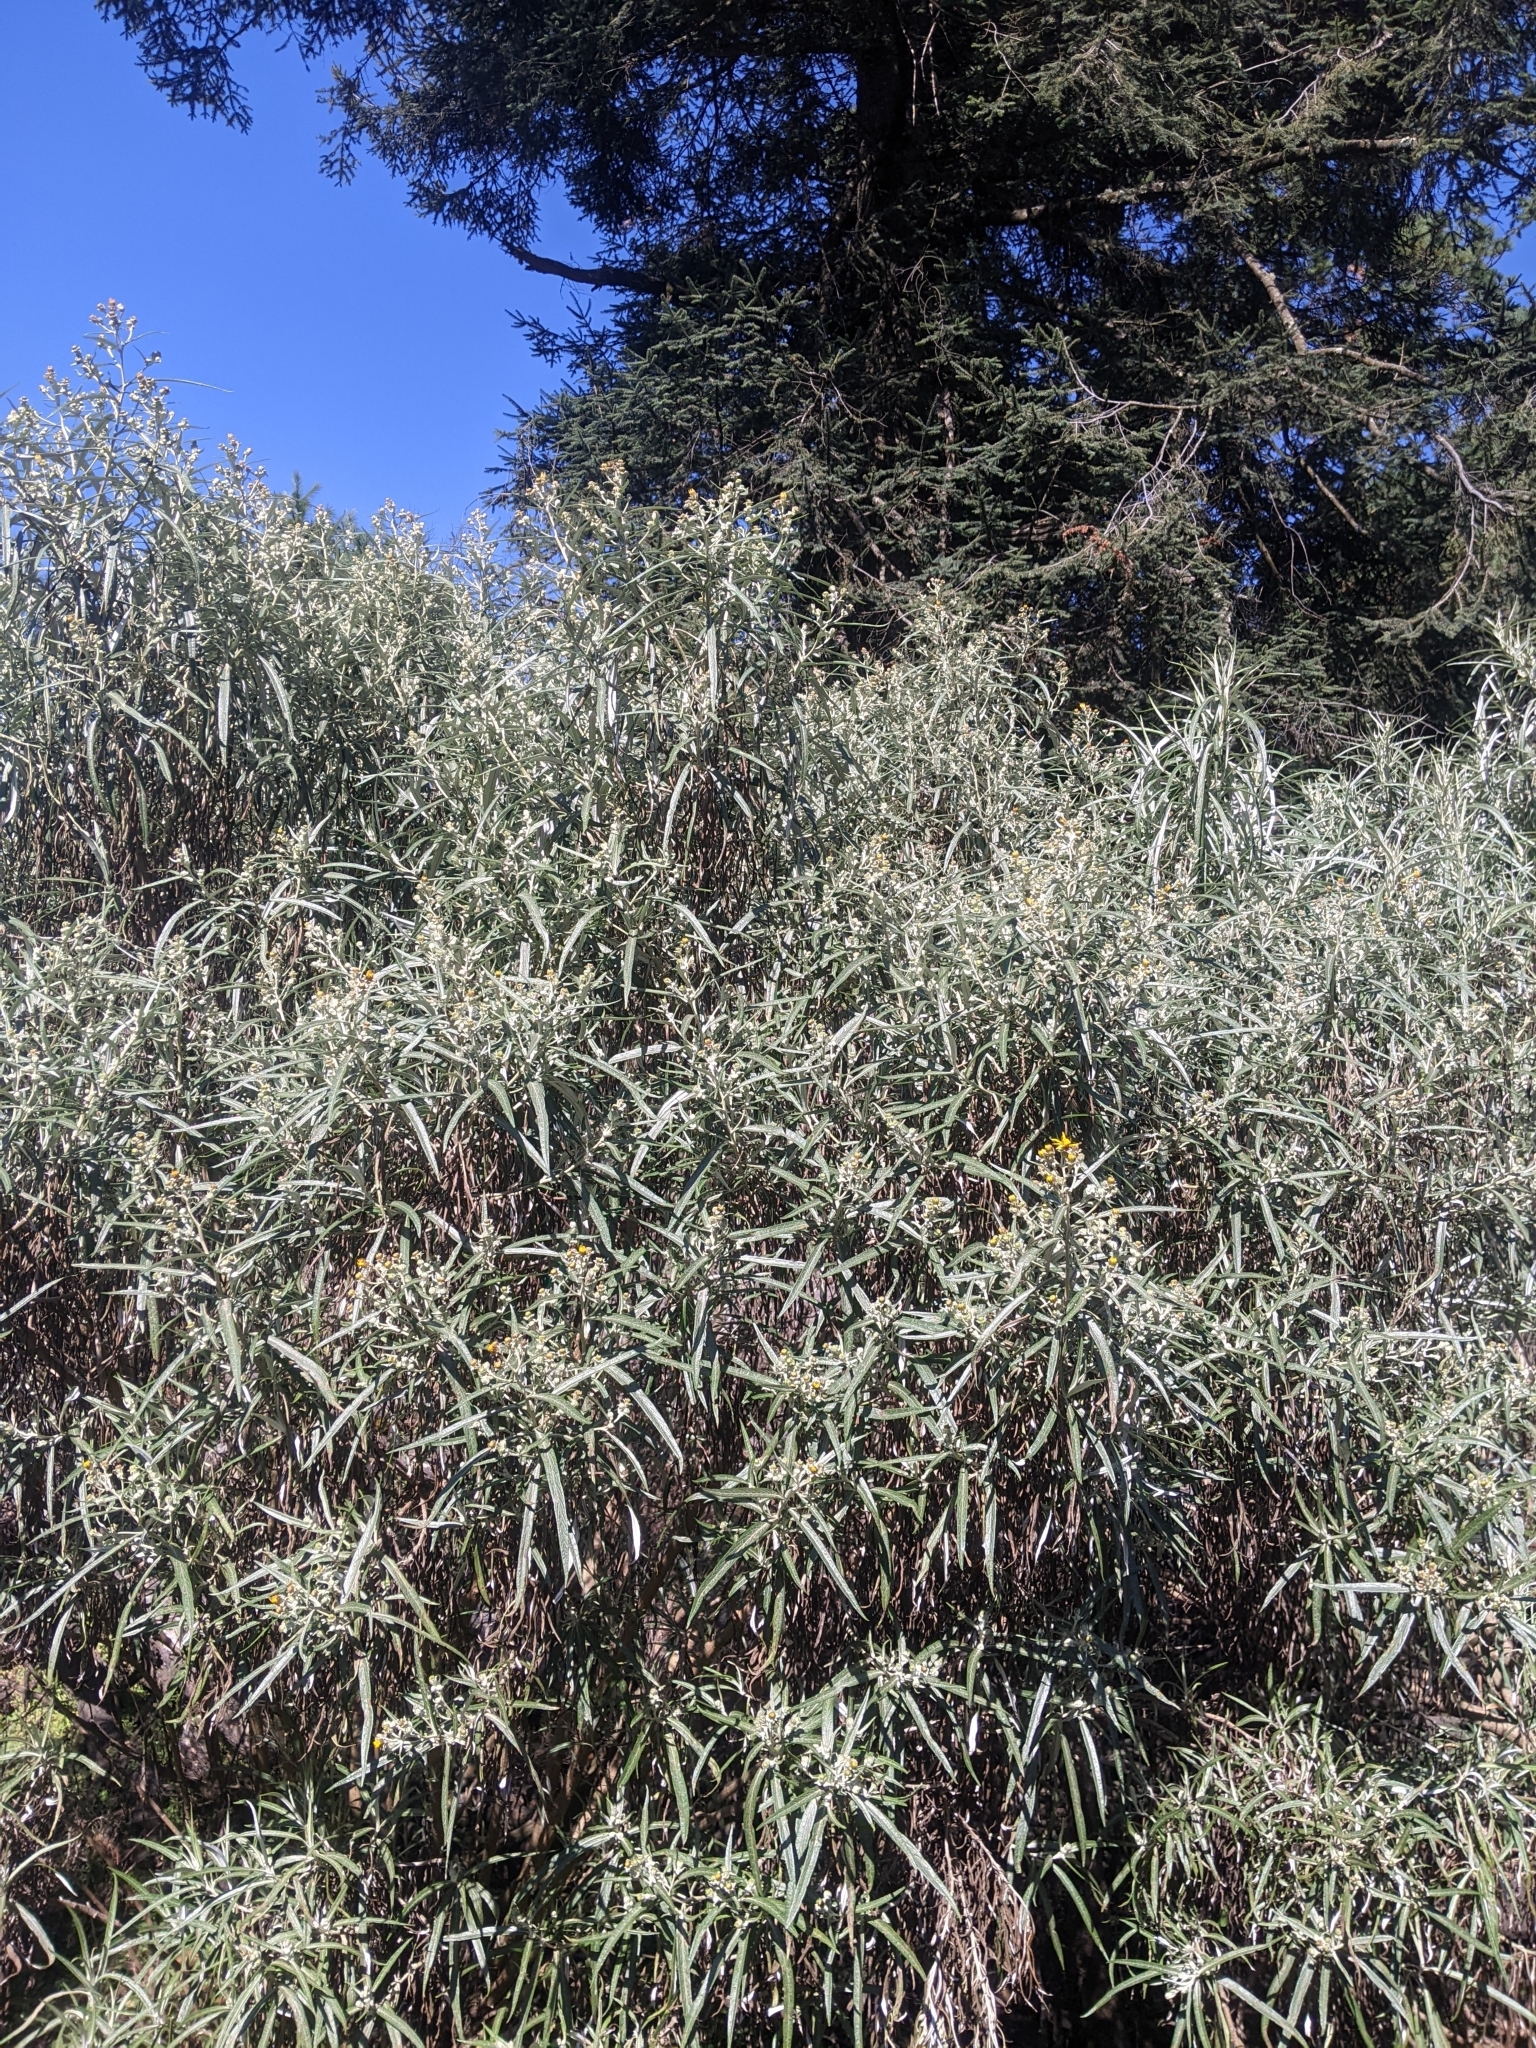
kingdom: Plantae
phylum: Tracheophyta
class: Magnoliopsida
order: Asterales
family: Asteraceae
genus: Senecio
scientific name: Senecio cinerarioides
